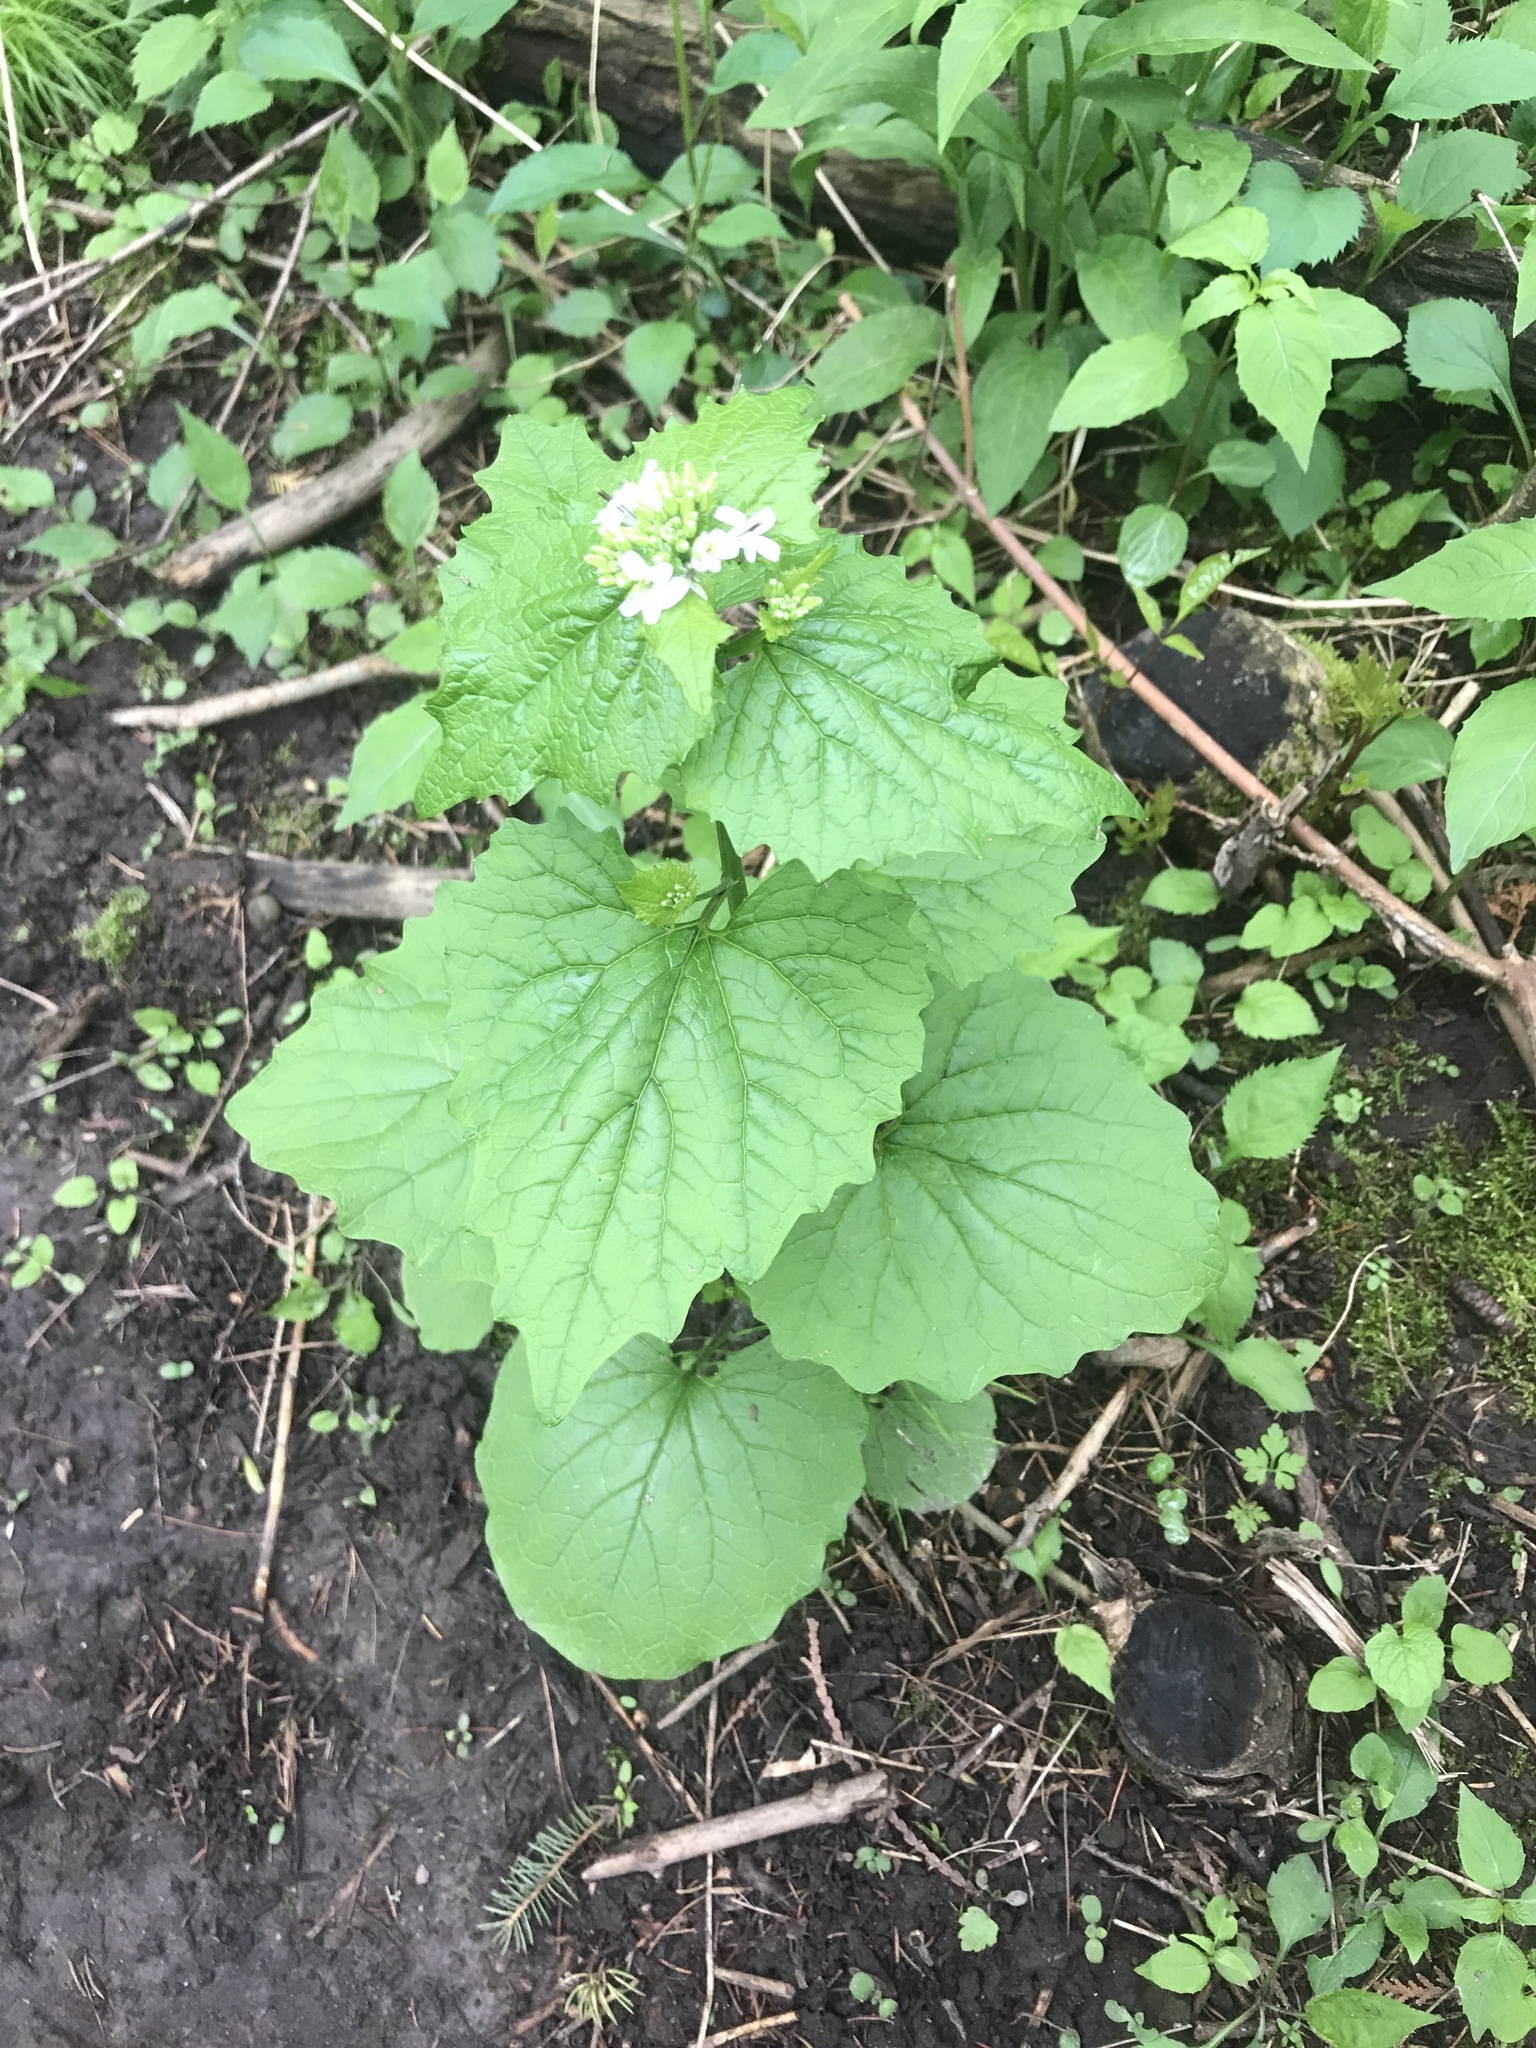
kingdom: Plantae
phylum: Tracheophyta
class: Magnoliopsida
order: Brassicales
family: Brassicaceae
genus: Alliaria
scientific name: Alliaria petiolata
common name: Garlic mustard
